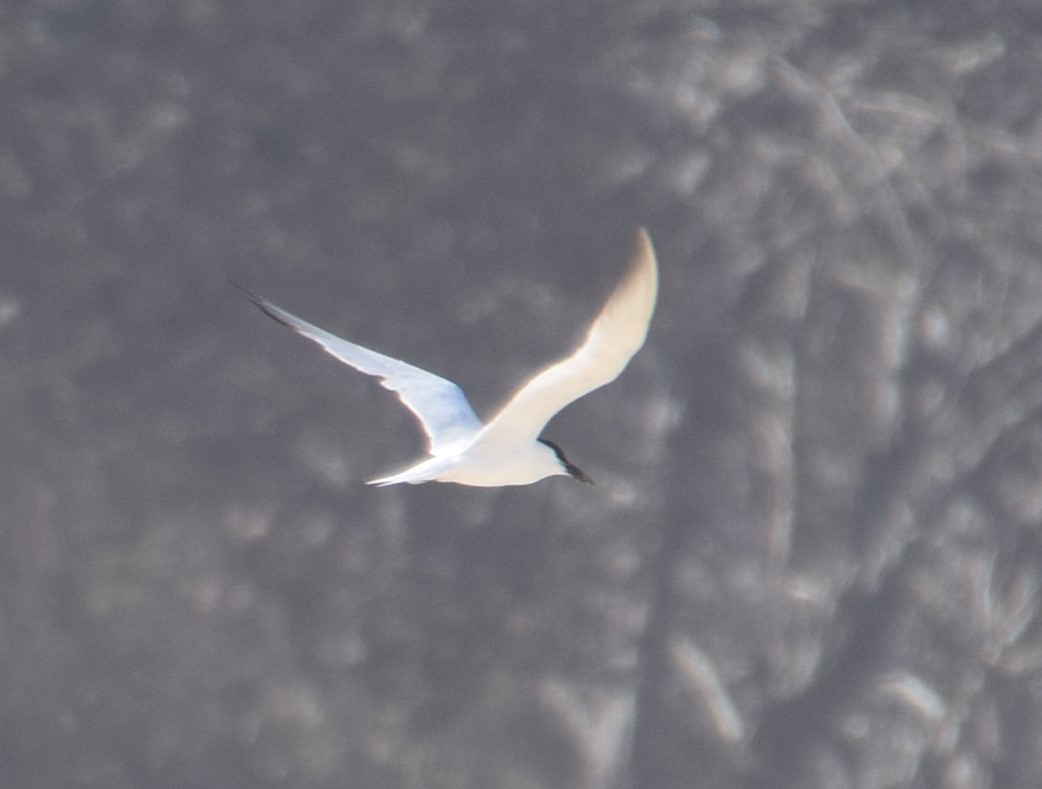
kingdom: Animalia
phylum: Chordata
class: Aves
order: Charadriiformes
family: Laridae
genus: Gelochelidon
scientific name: Gelochelidon macrotarsa
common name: Australian tern
